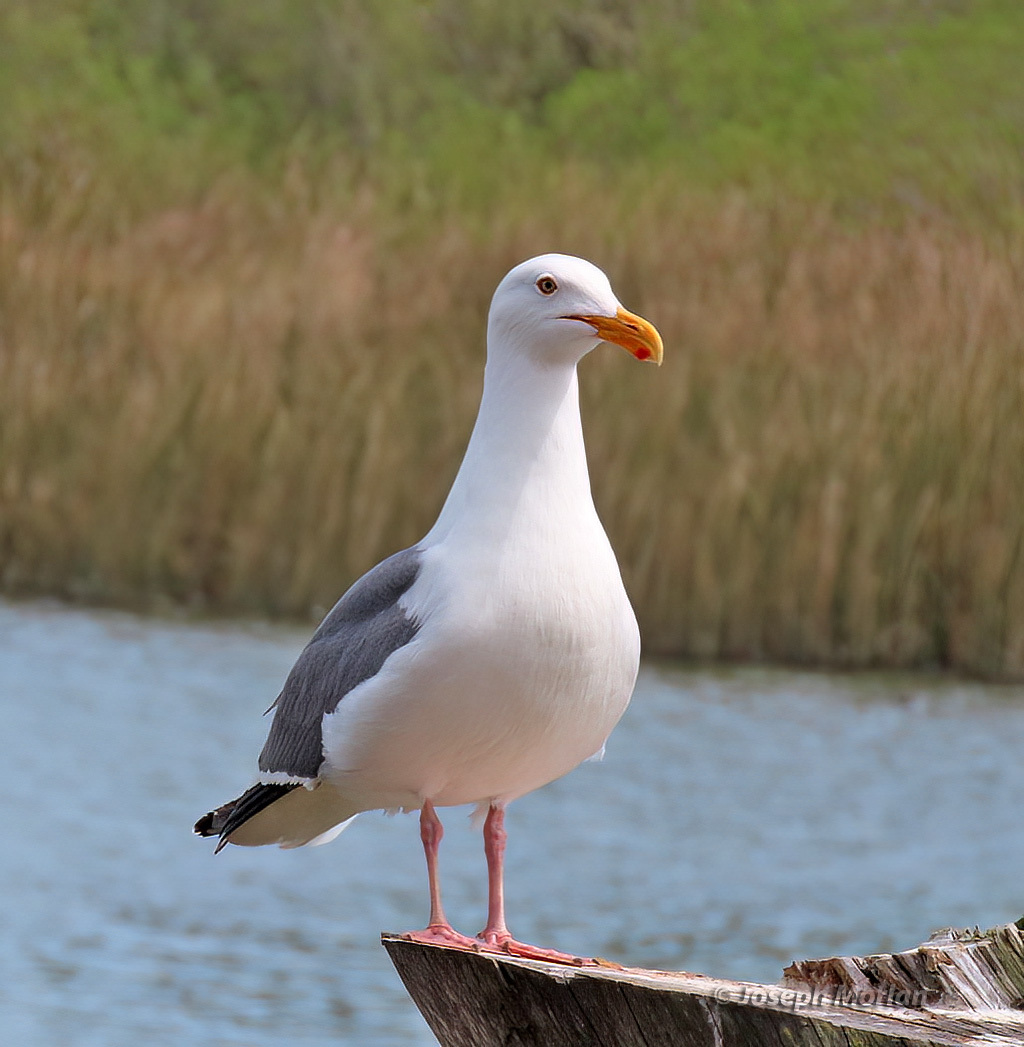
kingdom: Animalia
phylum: Chordata
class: Aves
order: Charadriiformes
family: Laridae
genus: Larus
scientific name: Larus occidentalis
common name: Western gull
